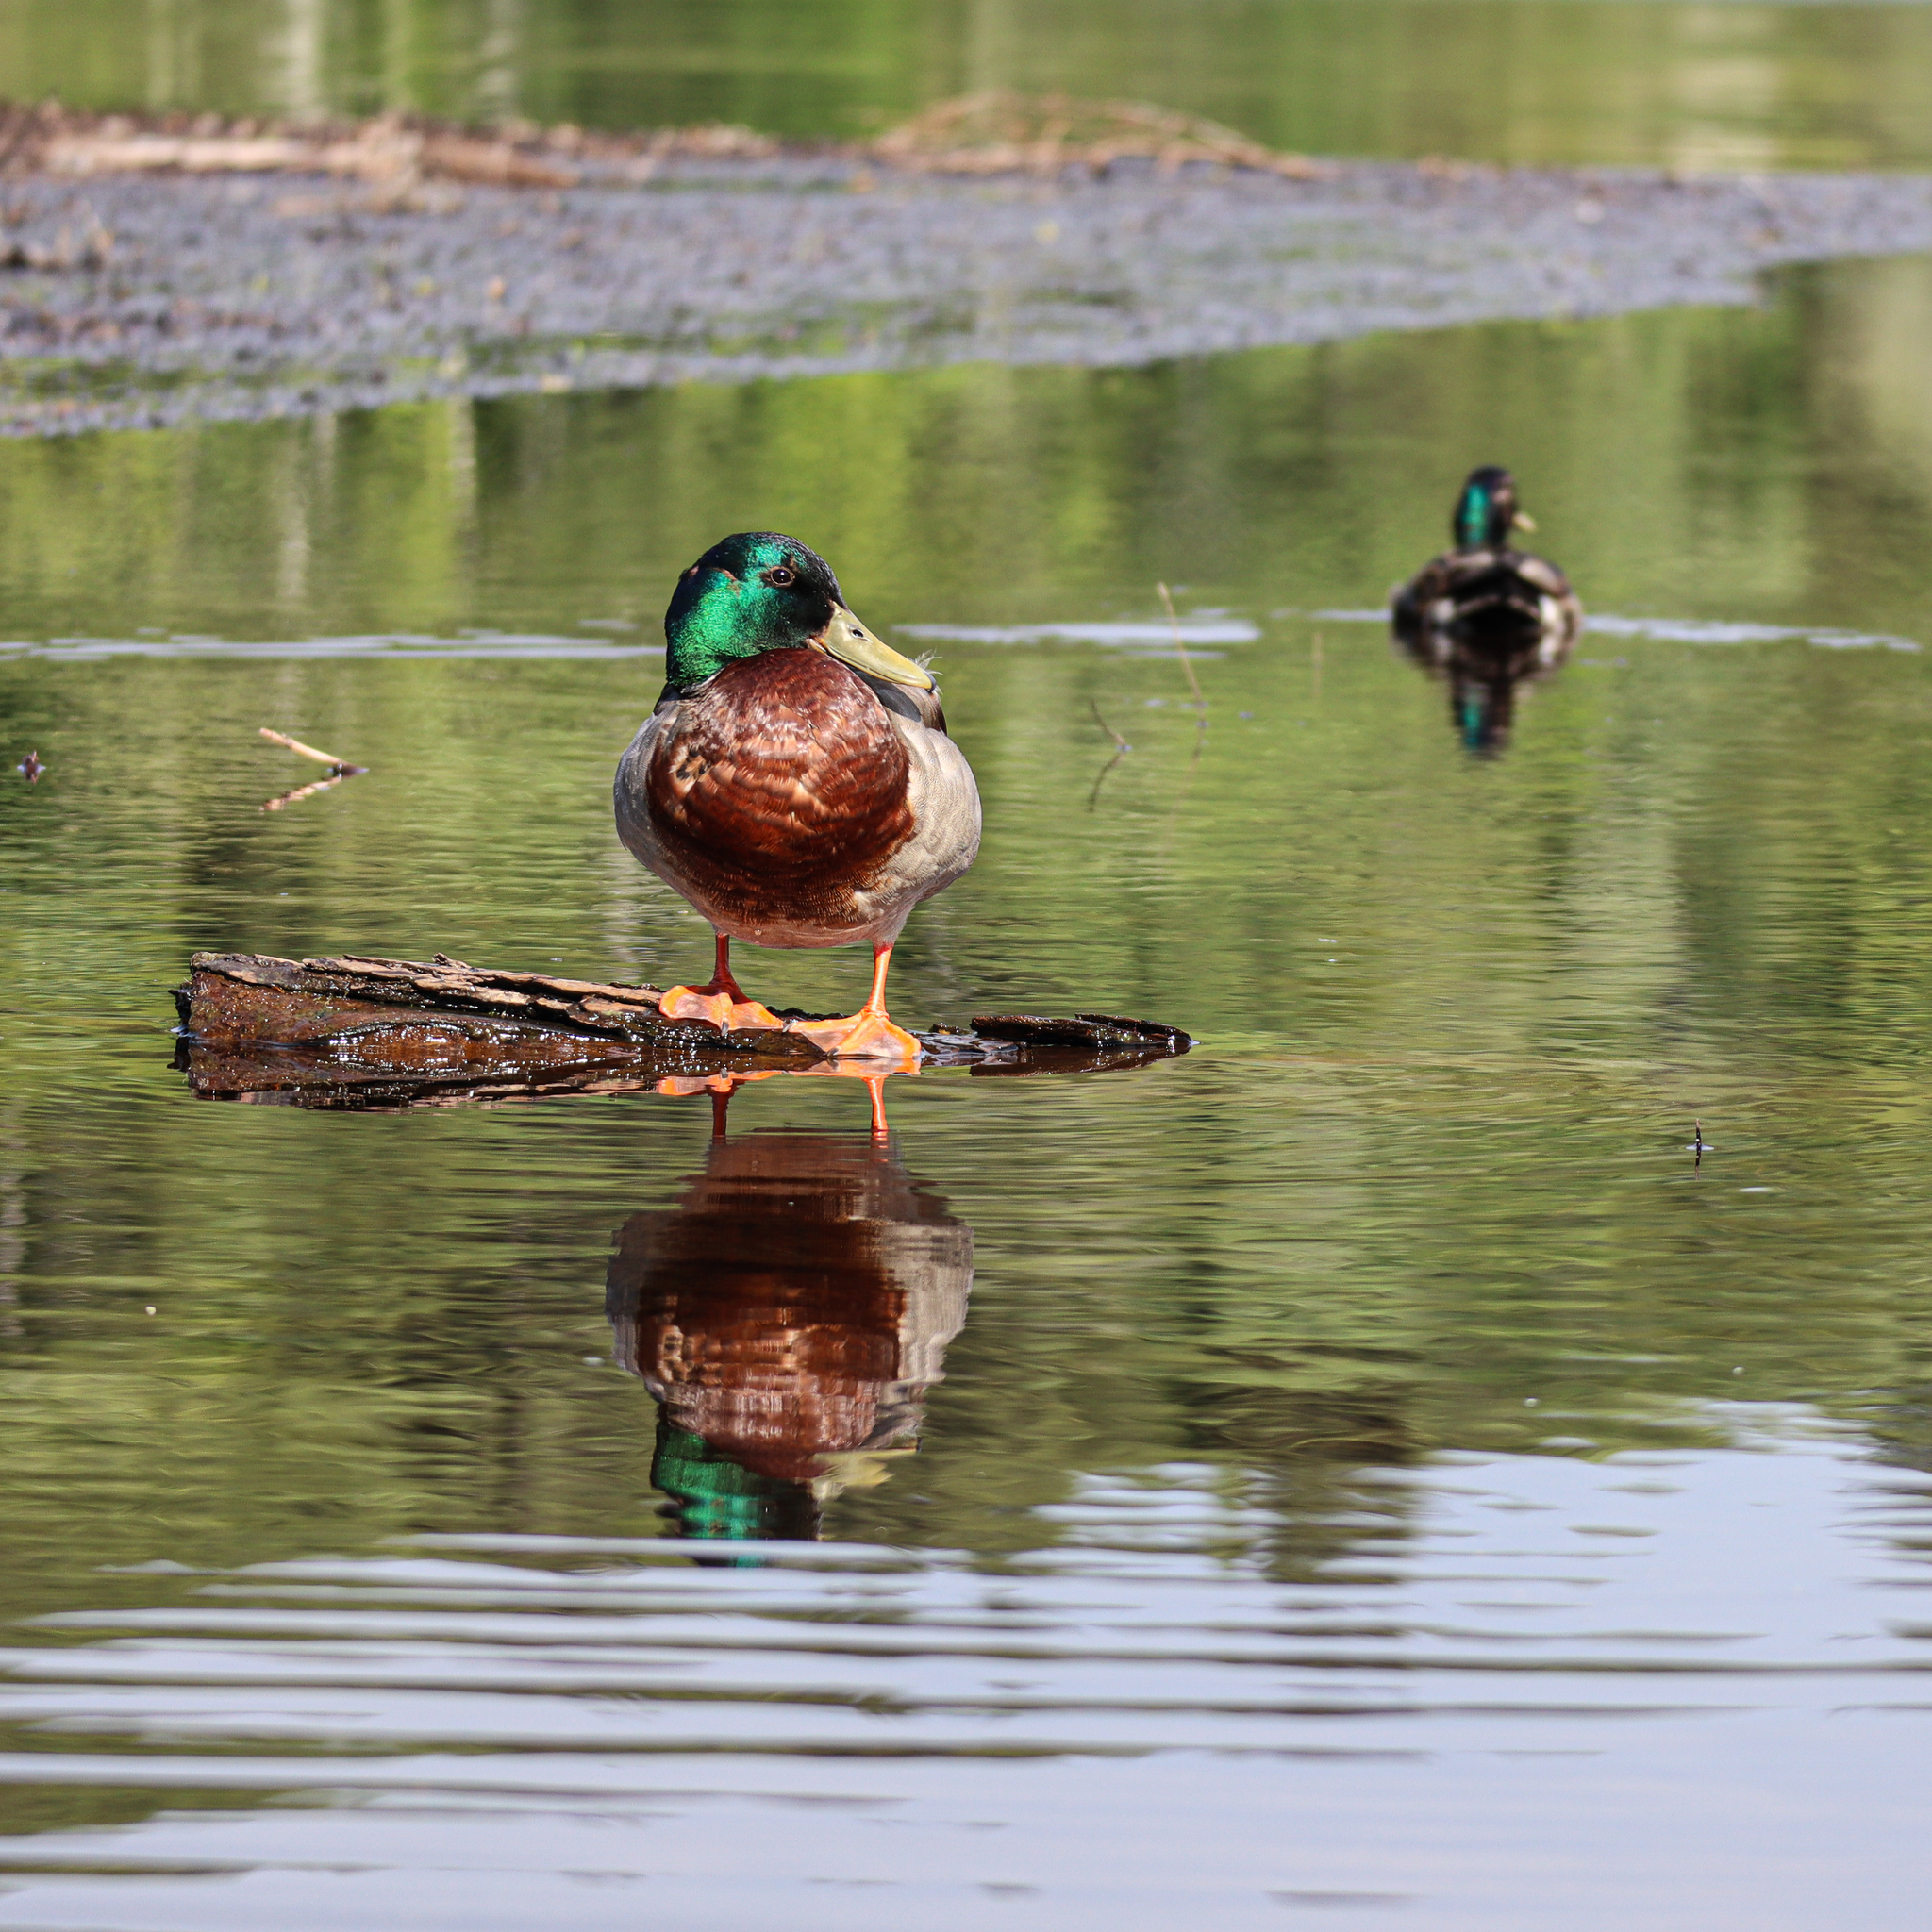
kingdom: Animalia
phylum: Chordata
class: Aves
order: Anseriformes
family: Anatidae
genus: Anas
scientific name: Anas platyrhynchos
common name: Mallard
